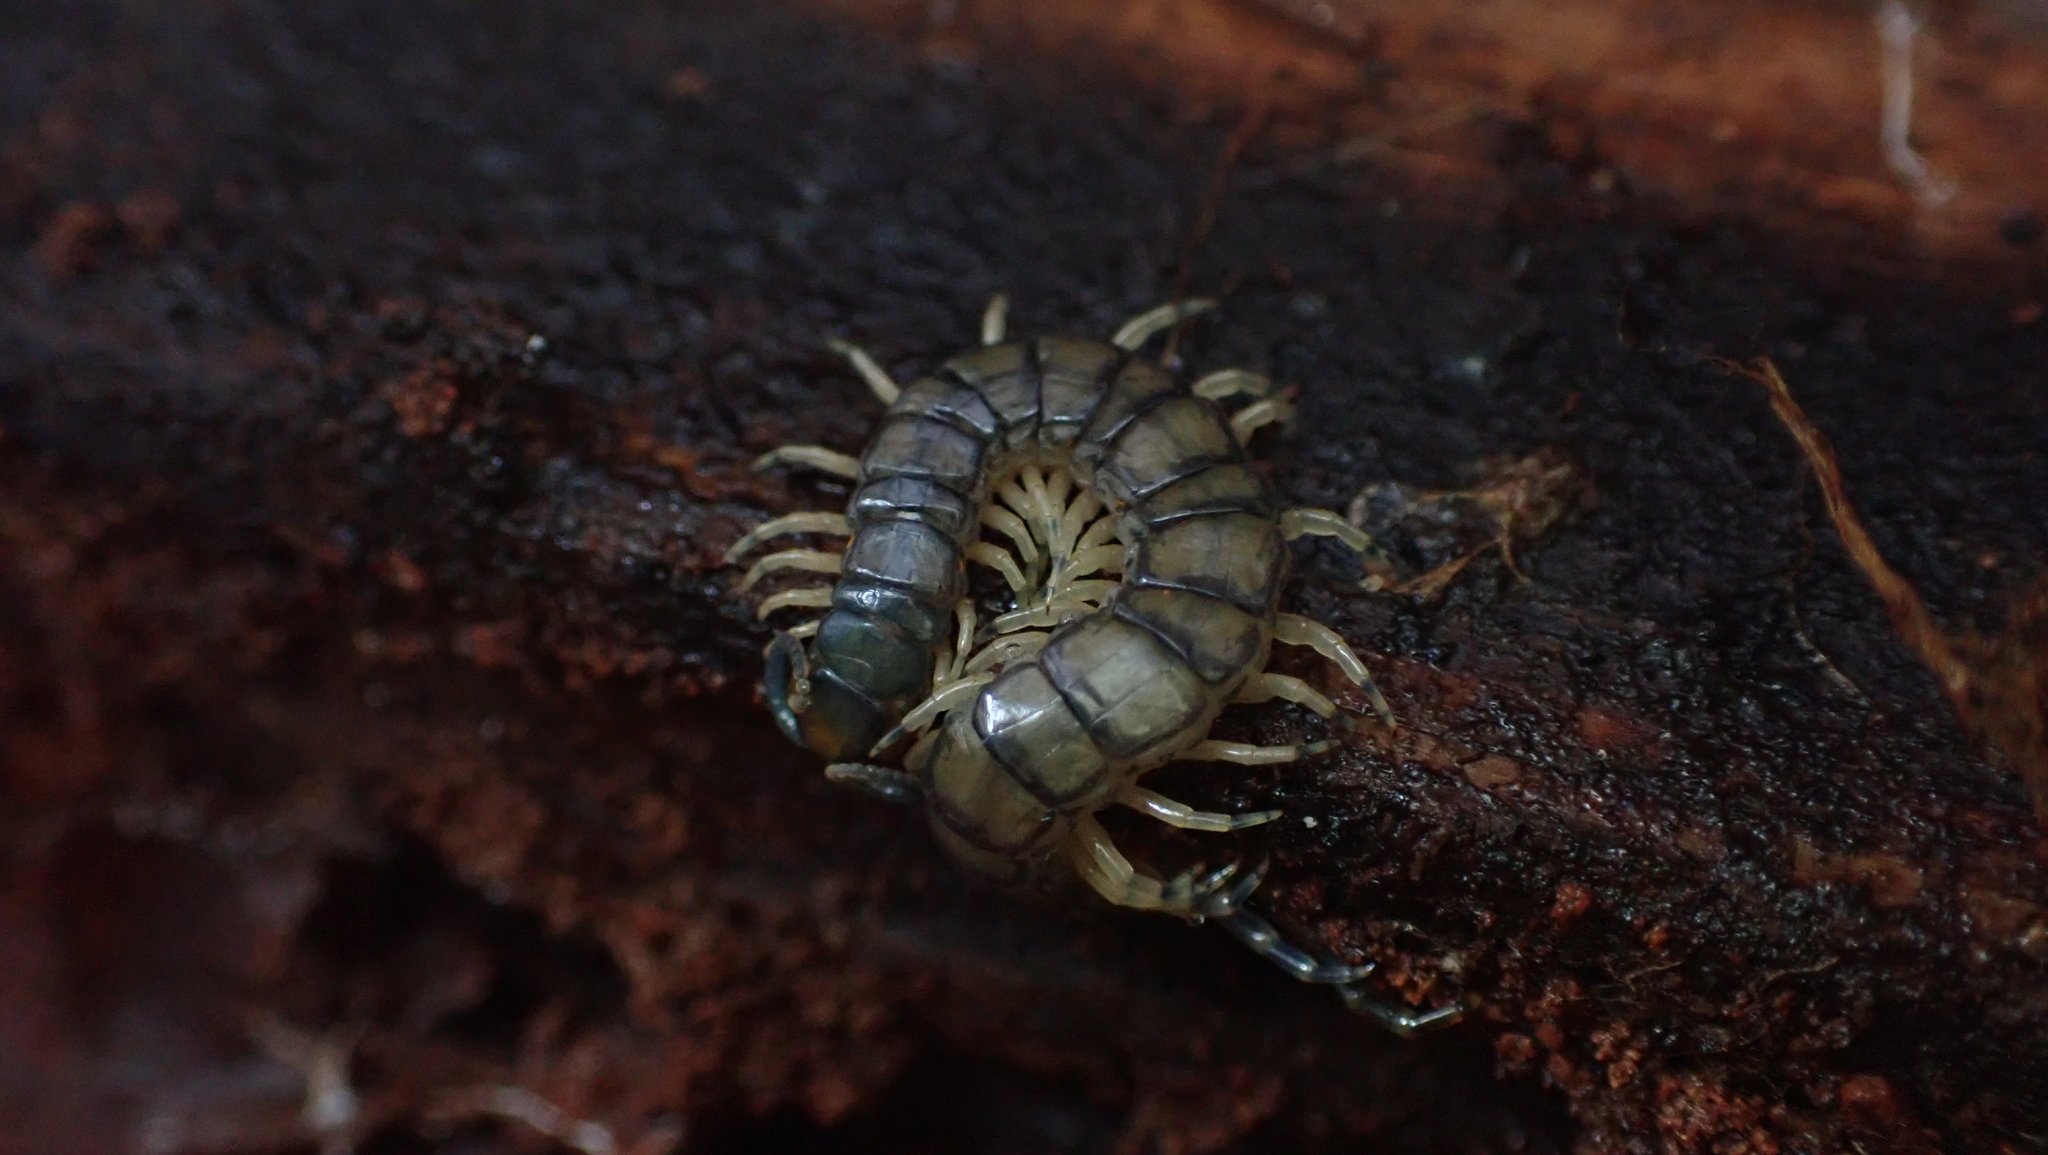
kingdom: Animalia
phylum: Arthropoda
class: Chilopoda
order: Scolopendromorpha
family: Scolopendridae
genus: Hemiscolopendra
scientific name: Hemiscolopendra marginata
